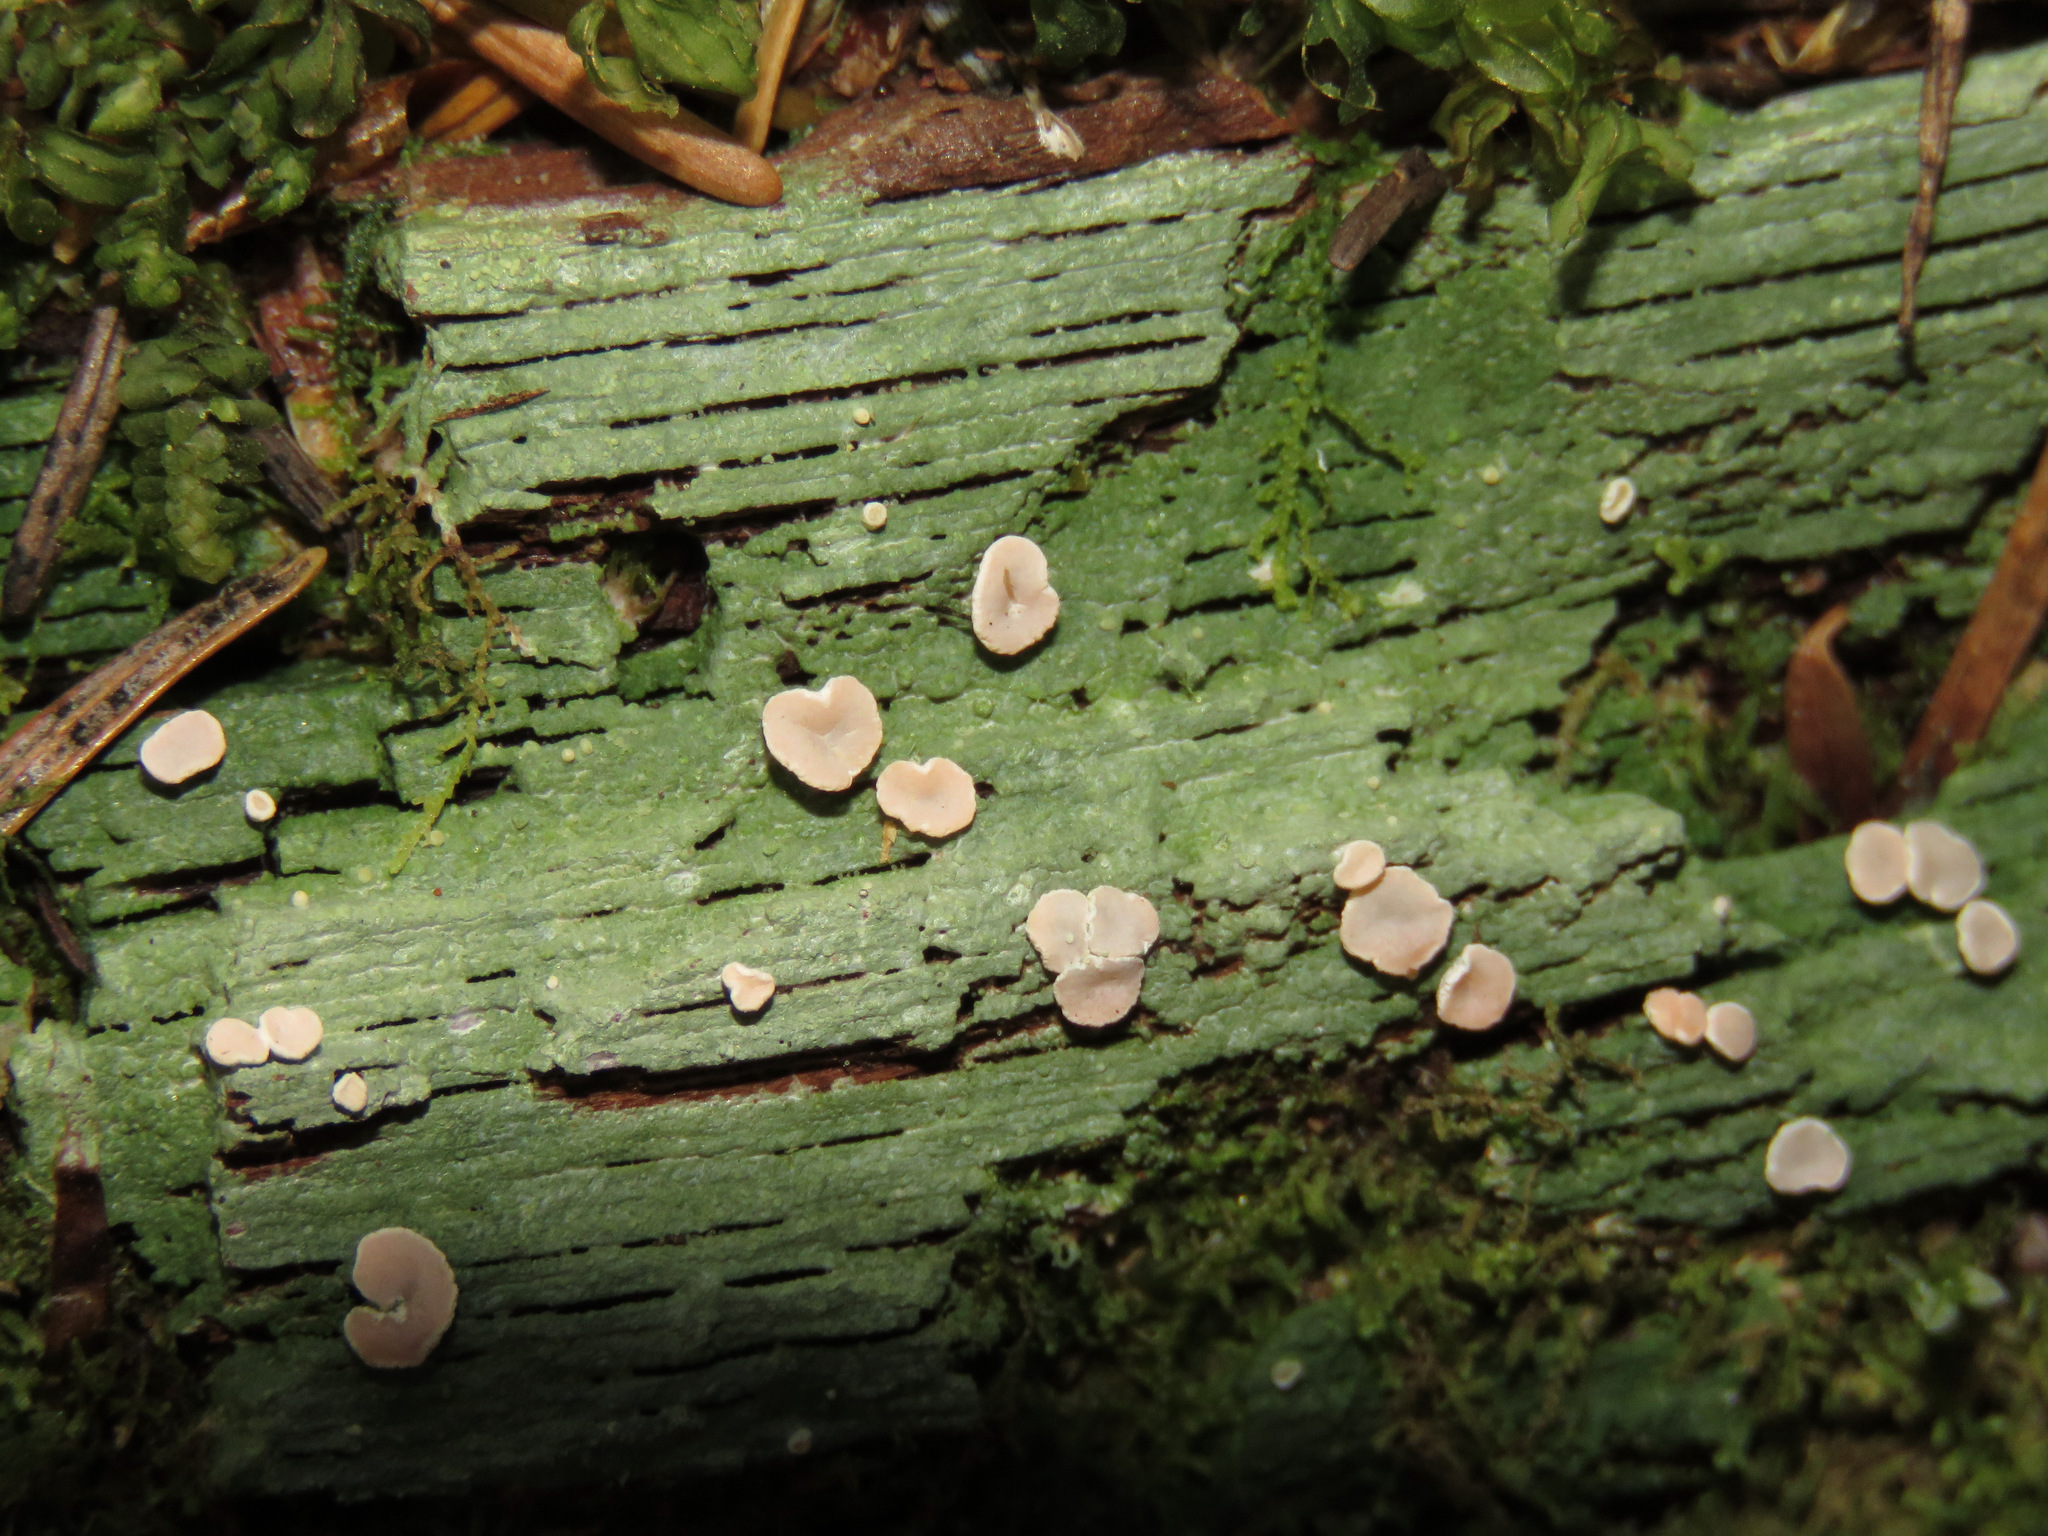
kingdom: Fungi
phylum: Ascomycota
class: Lecanoromycetes
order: Pertusariales
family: Icmadophilaceae
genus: Icmadophila
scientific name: Icmadophila ericetorum
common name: Candy lichen
